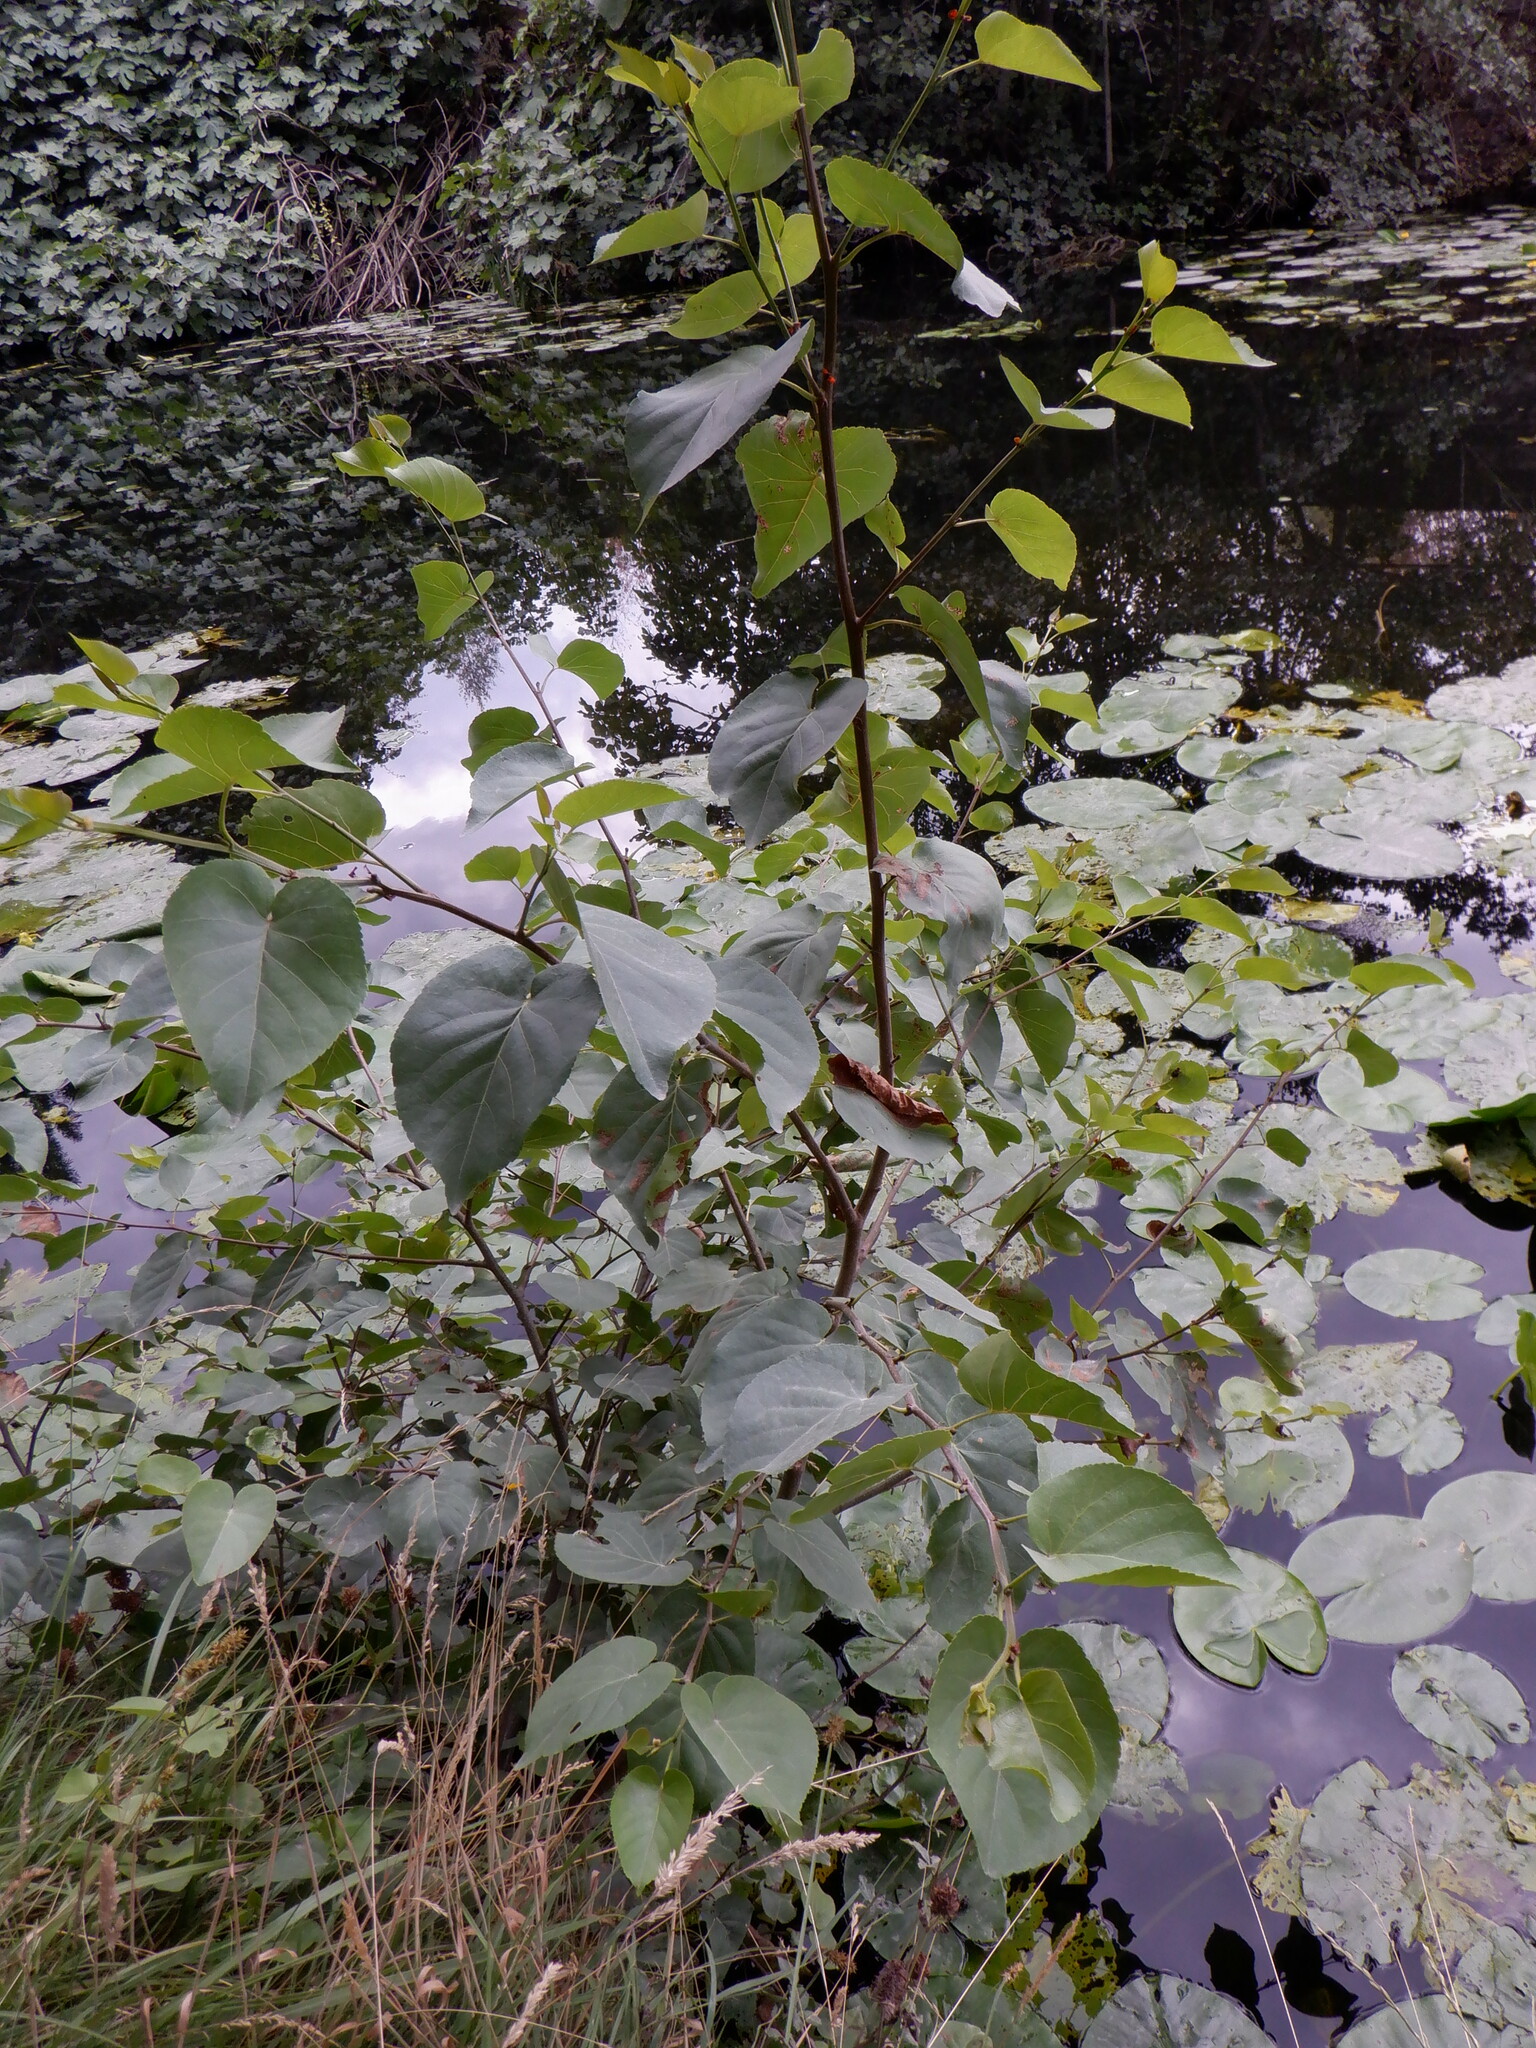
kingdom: Plantae
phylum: Tracheophyta
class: Magnoliopsida
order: Fagales
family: Betulaceae
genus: Alnus
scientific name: Alnus cordata
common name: Italian alder
